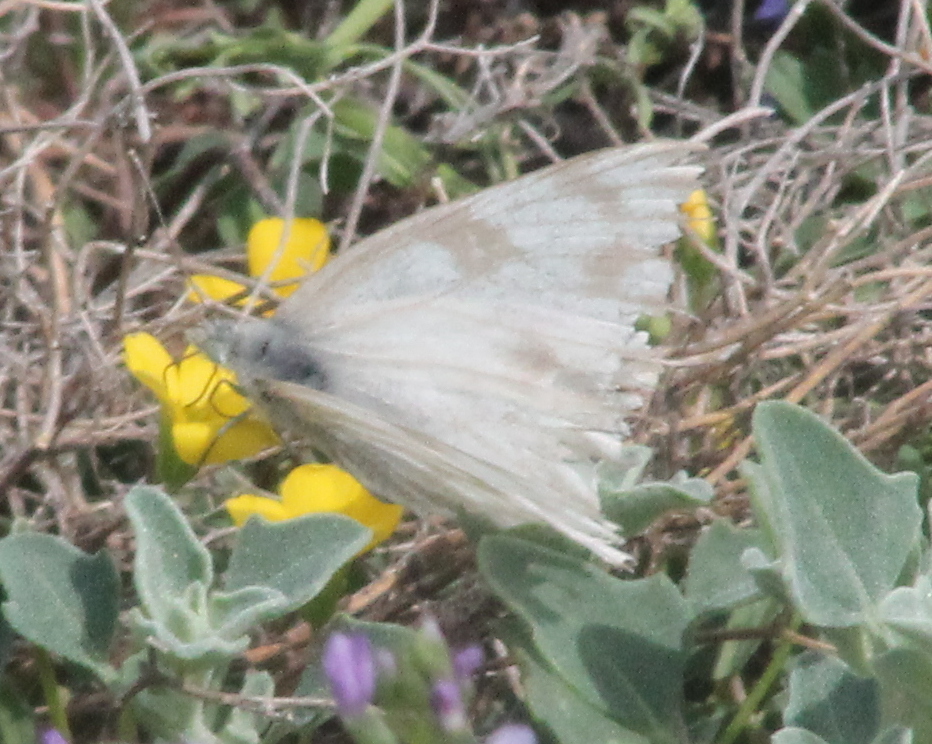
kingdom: Animalia
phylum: Arthropoda
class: Insecta
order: Lepidoptera
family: Pieridae
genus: Pontia
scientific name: Pontia protodice
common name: Checkered white
